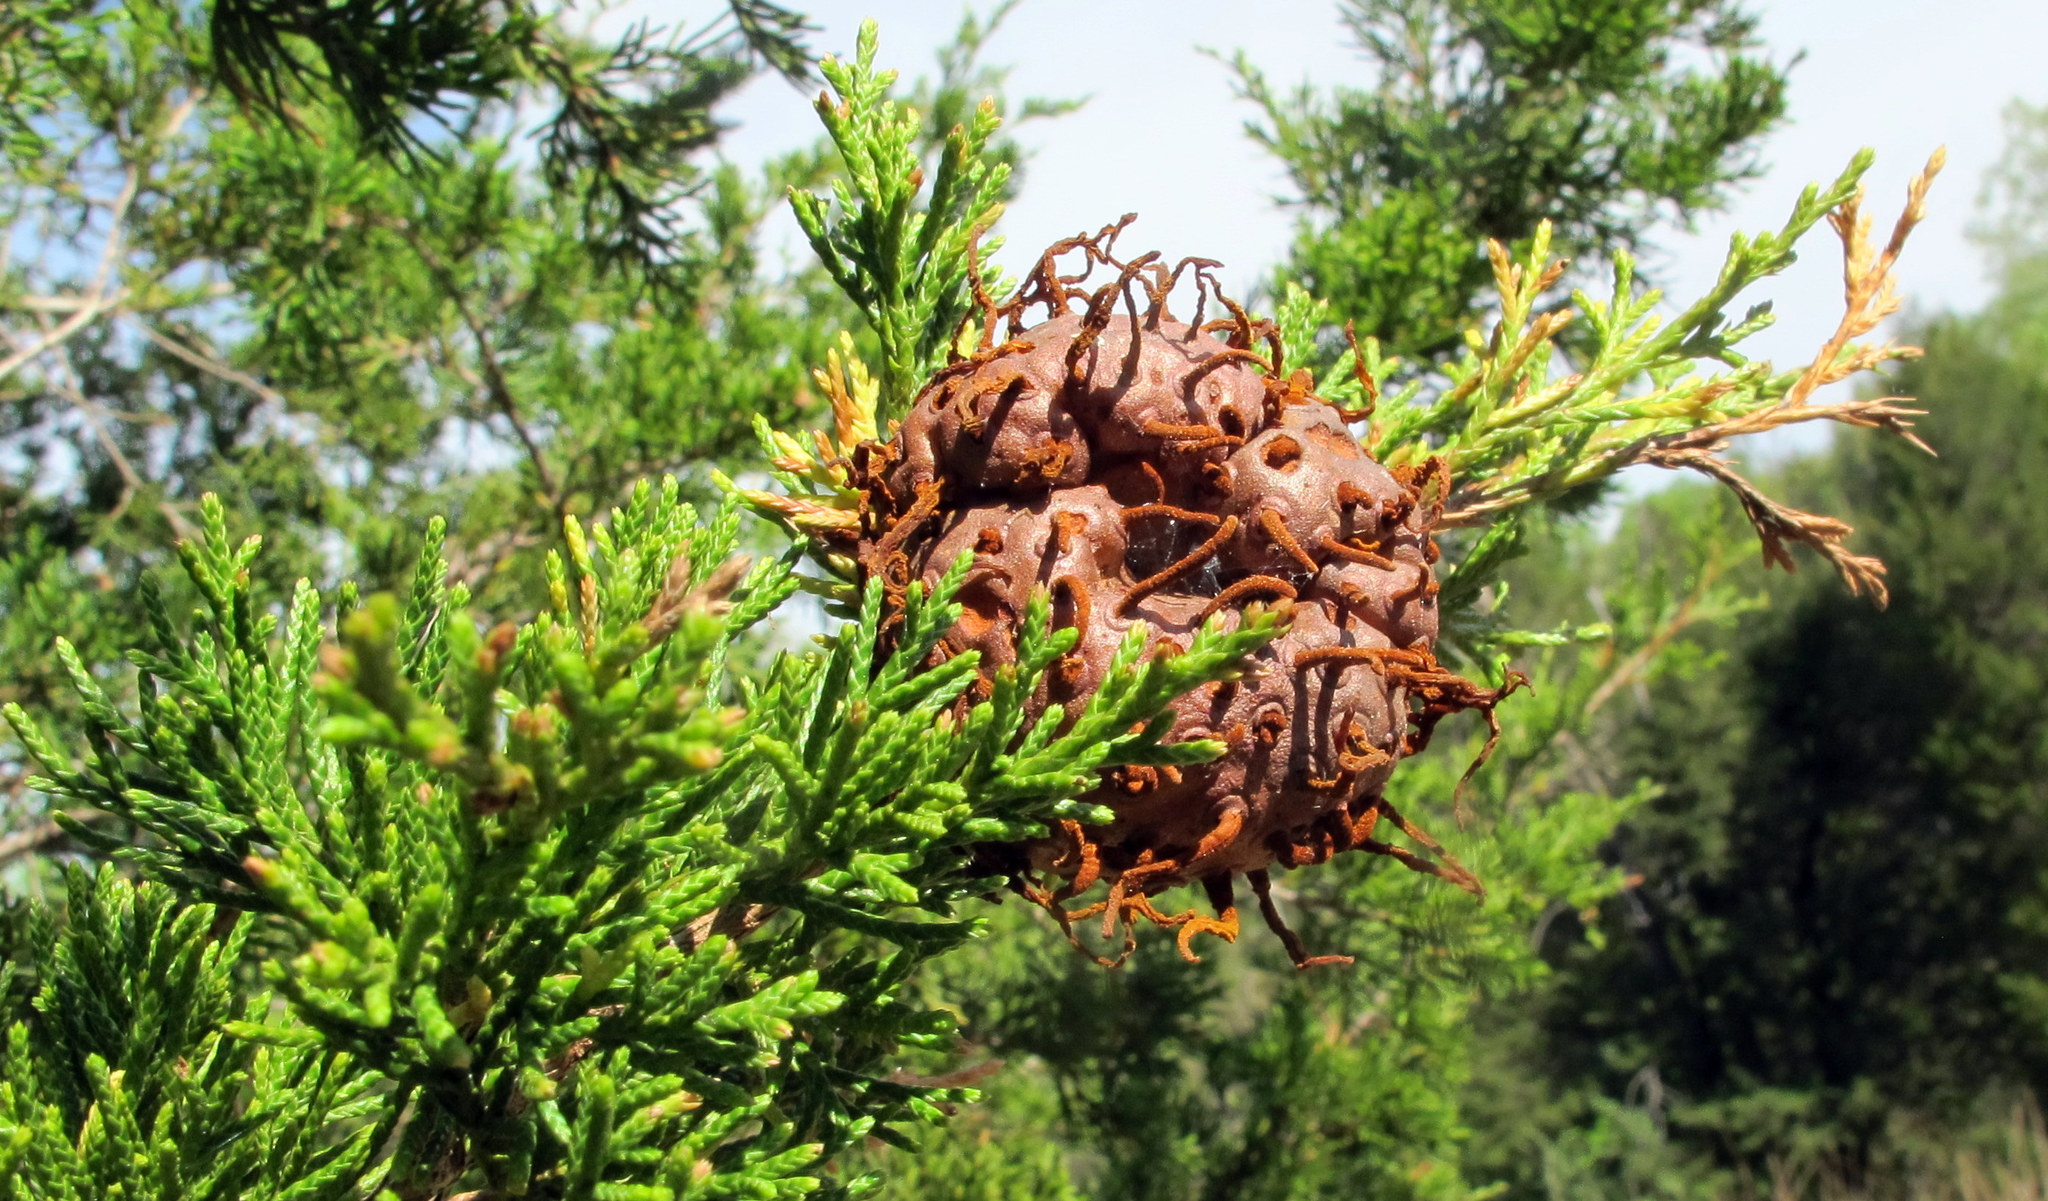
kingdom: Fungi
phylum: Basidiomycota
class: Pucciniomycetes
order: Pucciniales
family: Gymnosporangiaceae
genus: Gymnosporangium
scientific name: Gymnosporangium juniperi-virginianae
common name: Juniper-apple rust
